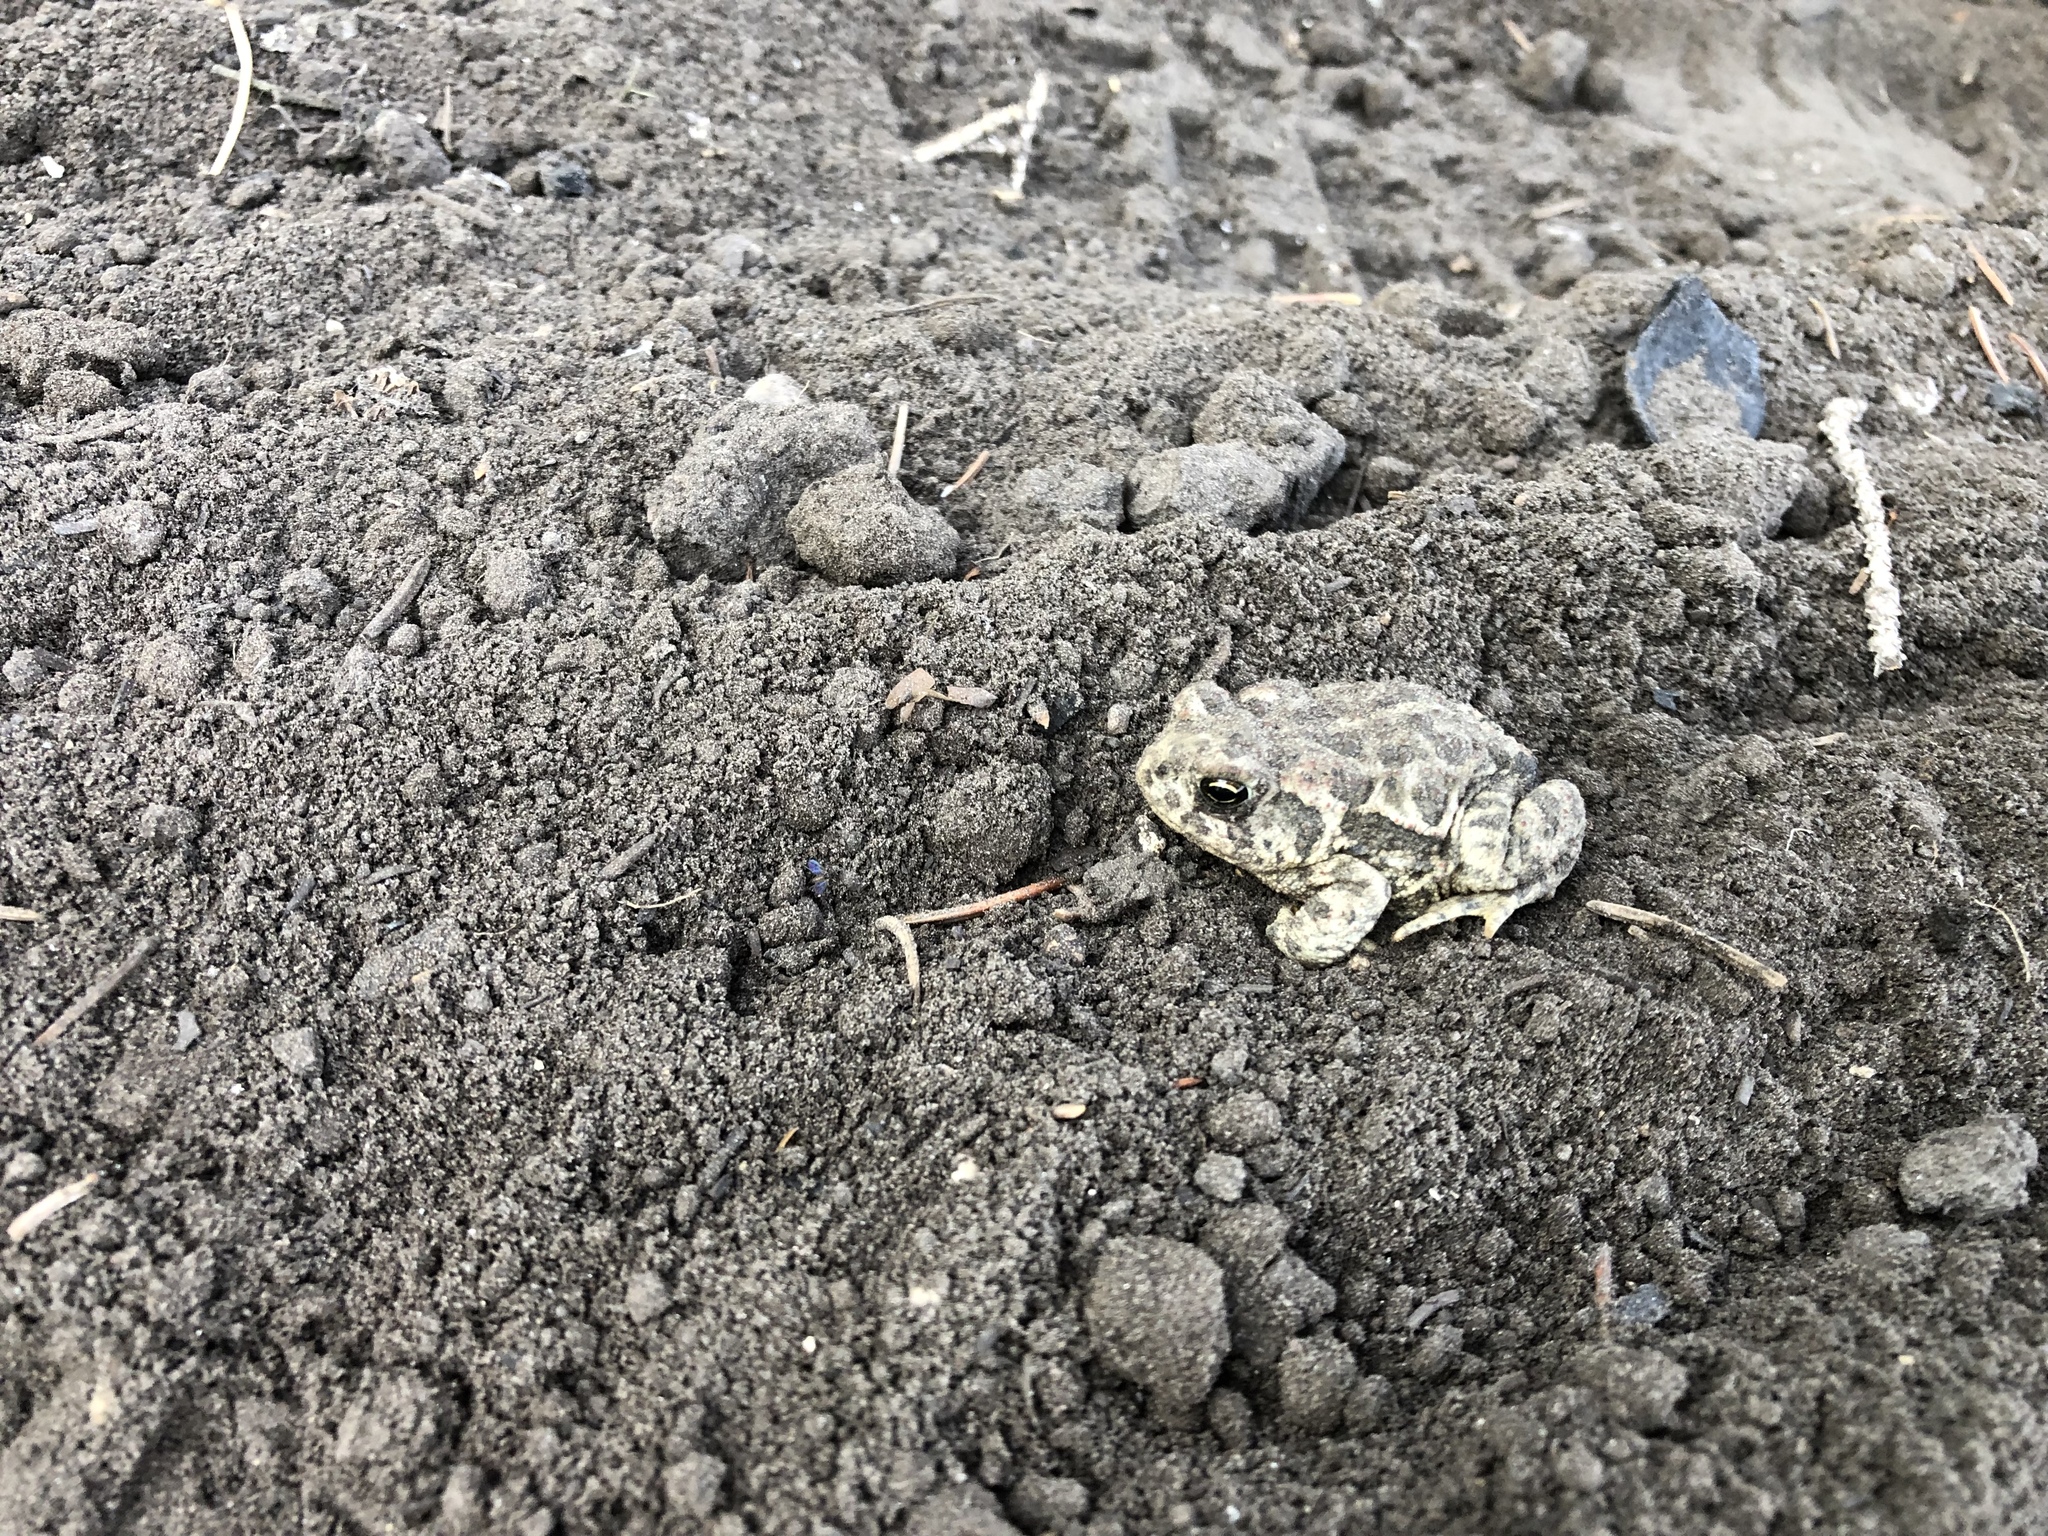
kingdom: Animalia
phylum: Chordata
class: Amphibia
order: Anura
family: Bufonidae
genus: Anaxyrus
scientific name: Anaxyrus hemiophrys
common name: Canadian toad
